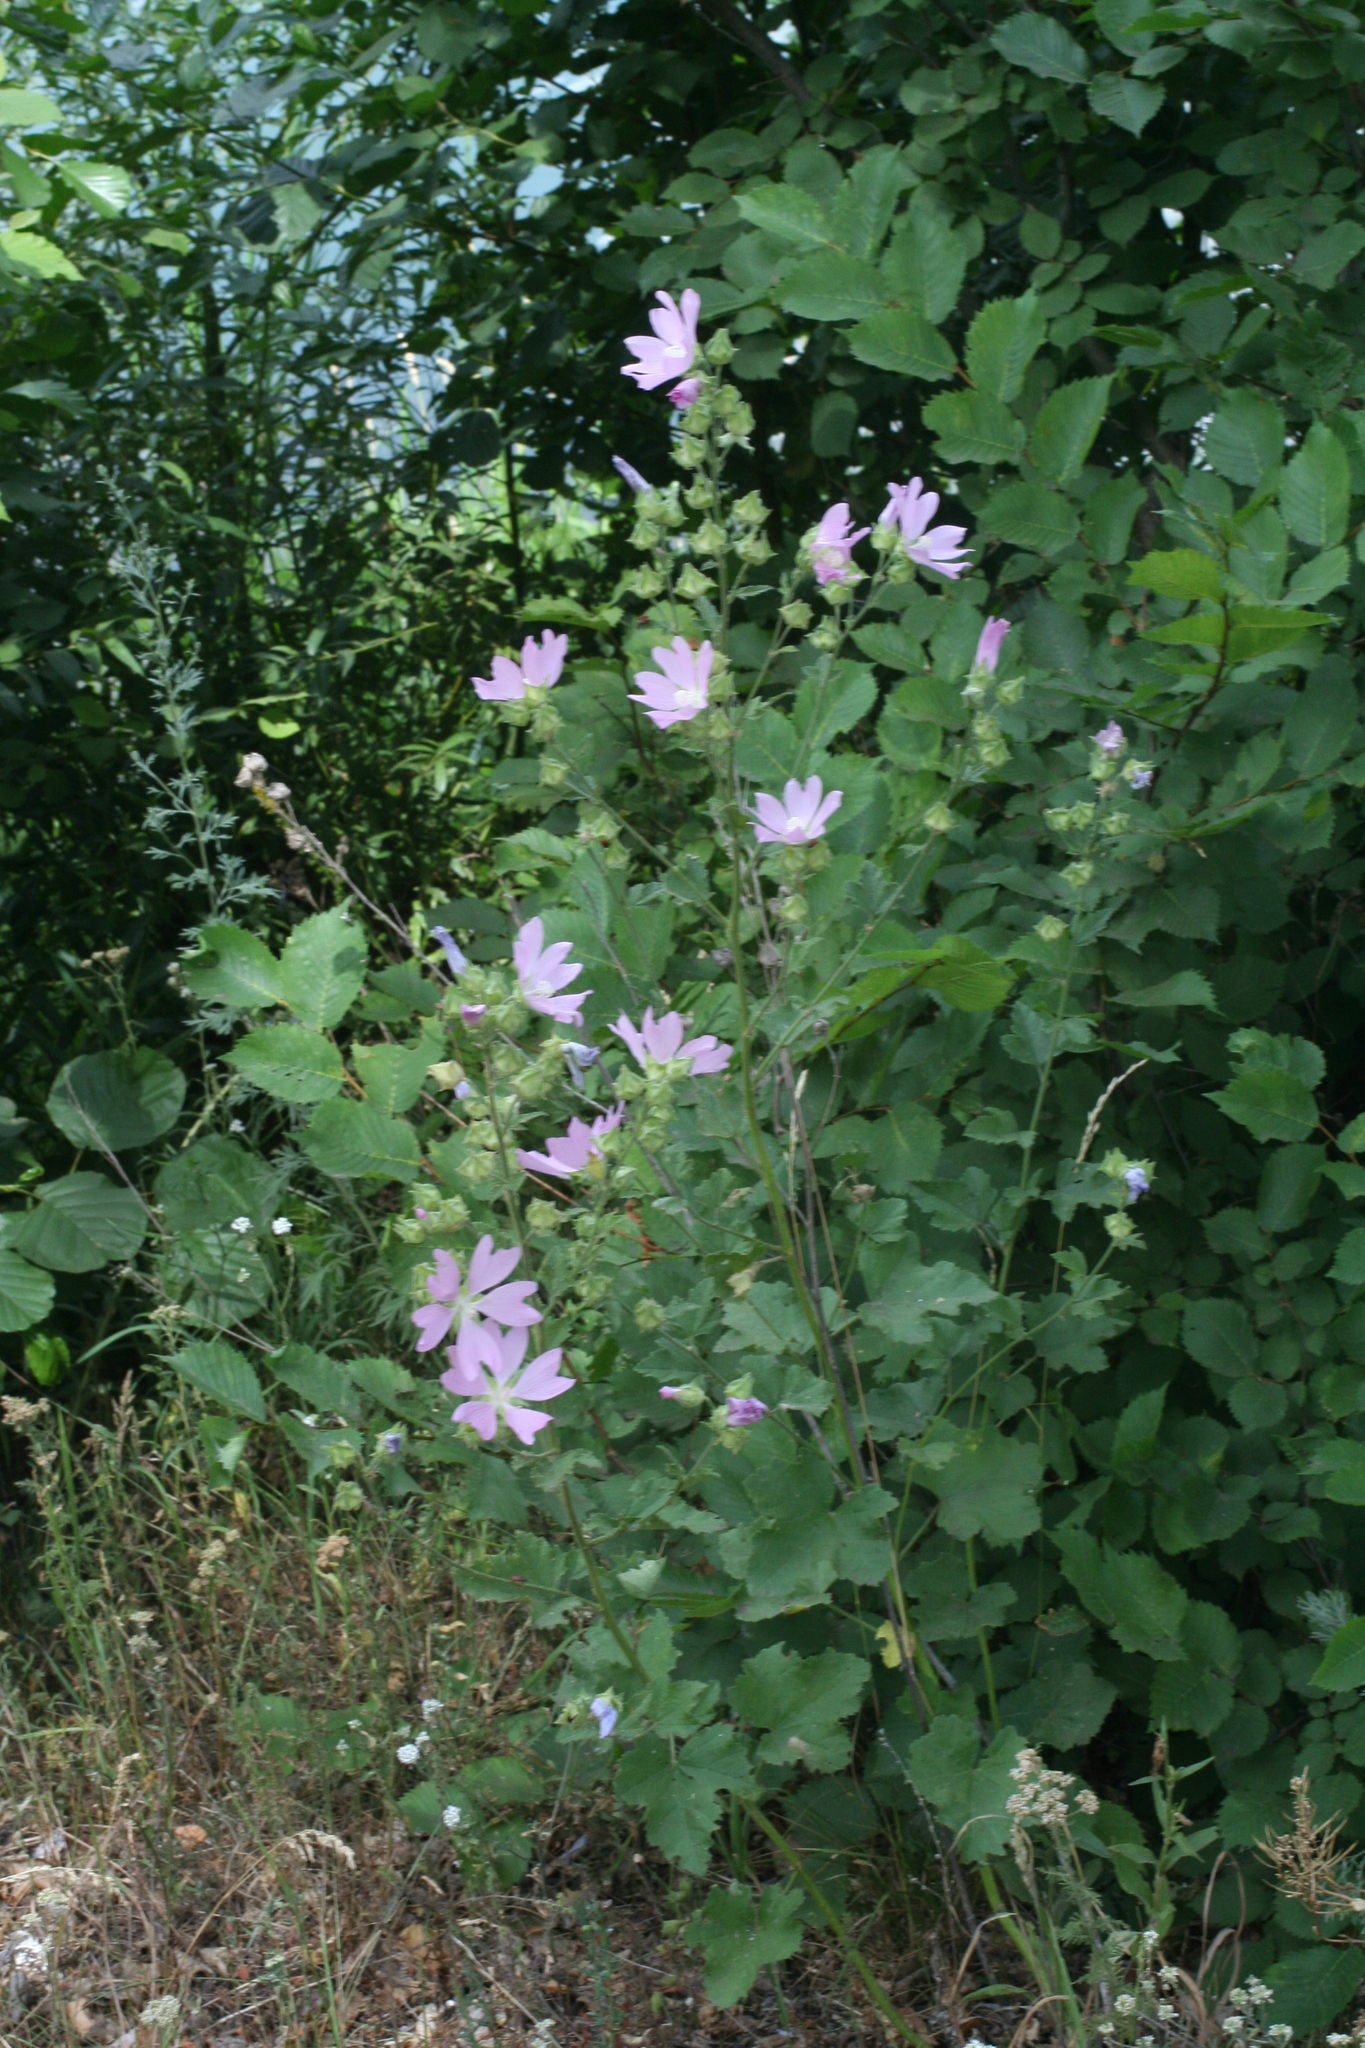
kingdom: Plantae
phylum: Tracheophyta
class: Magnoliopsida
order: Malvales
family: Malvaceae
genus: Malva
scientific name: Malva thuringiaca
